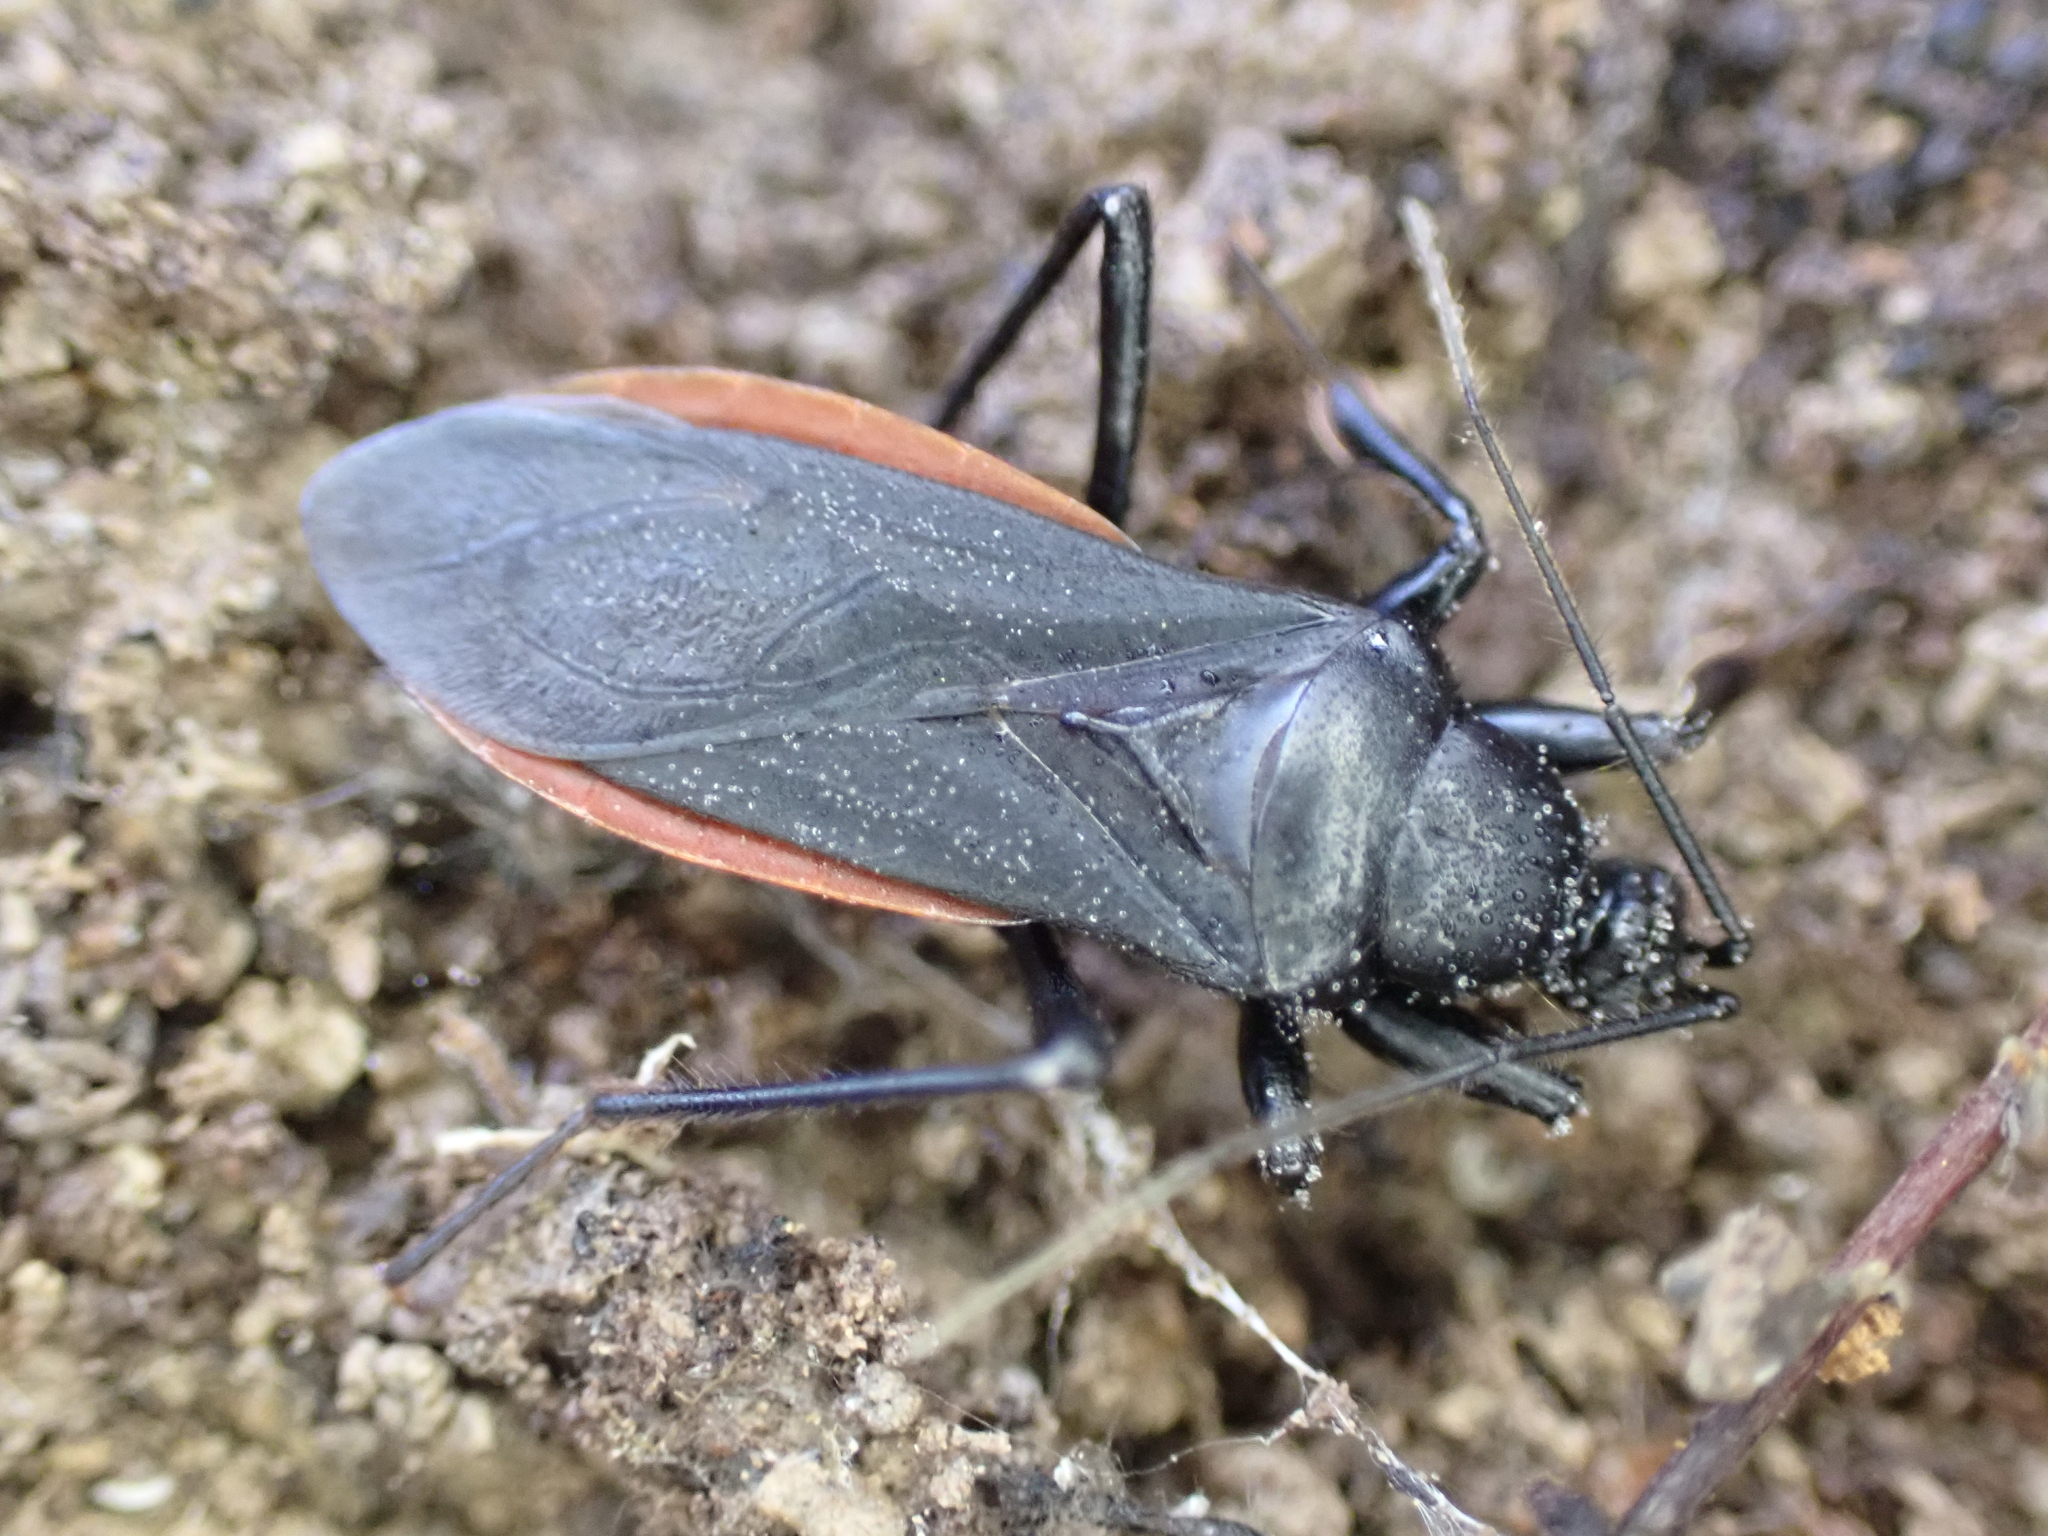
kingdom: Animalia
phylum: Arthropoda
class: Insecta
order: Hemiptera
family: Reduviidae
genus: Melanolestes
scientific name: Melanolestes picipes
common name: Assassin bug
